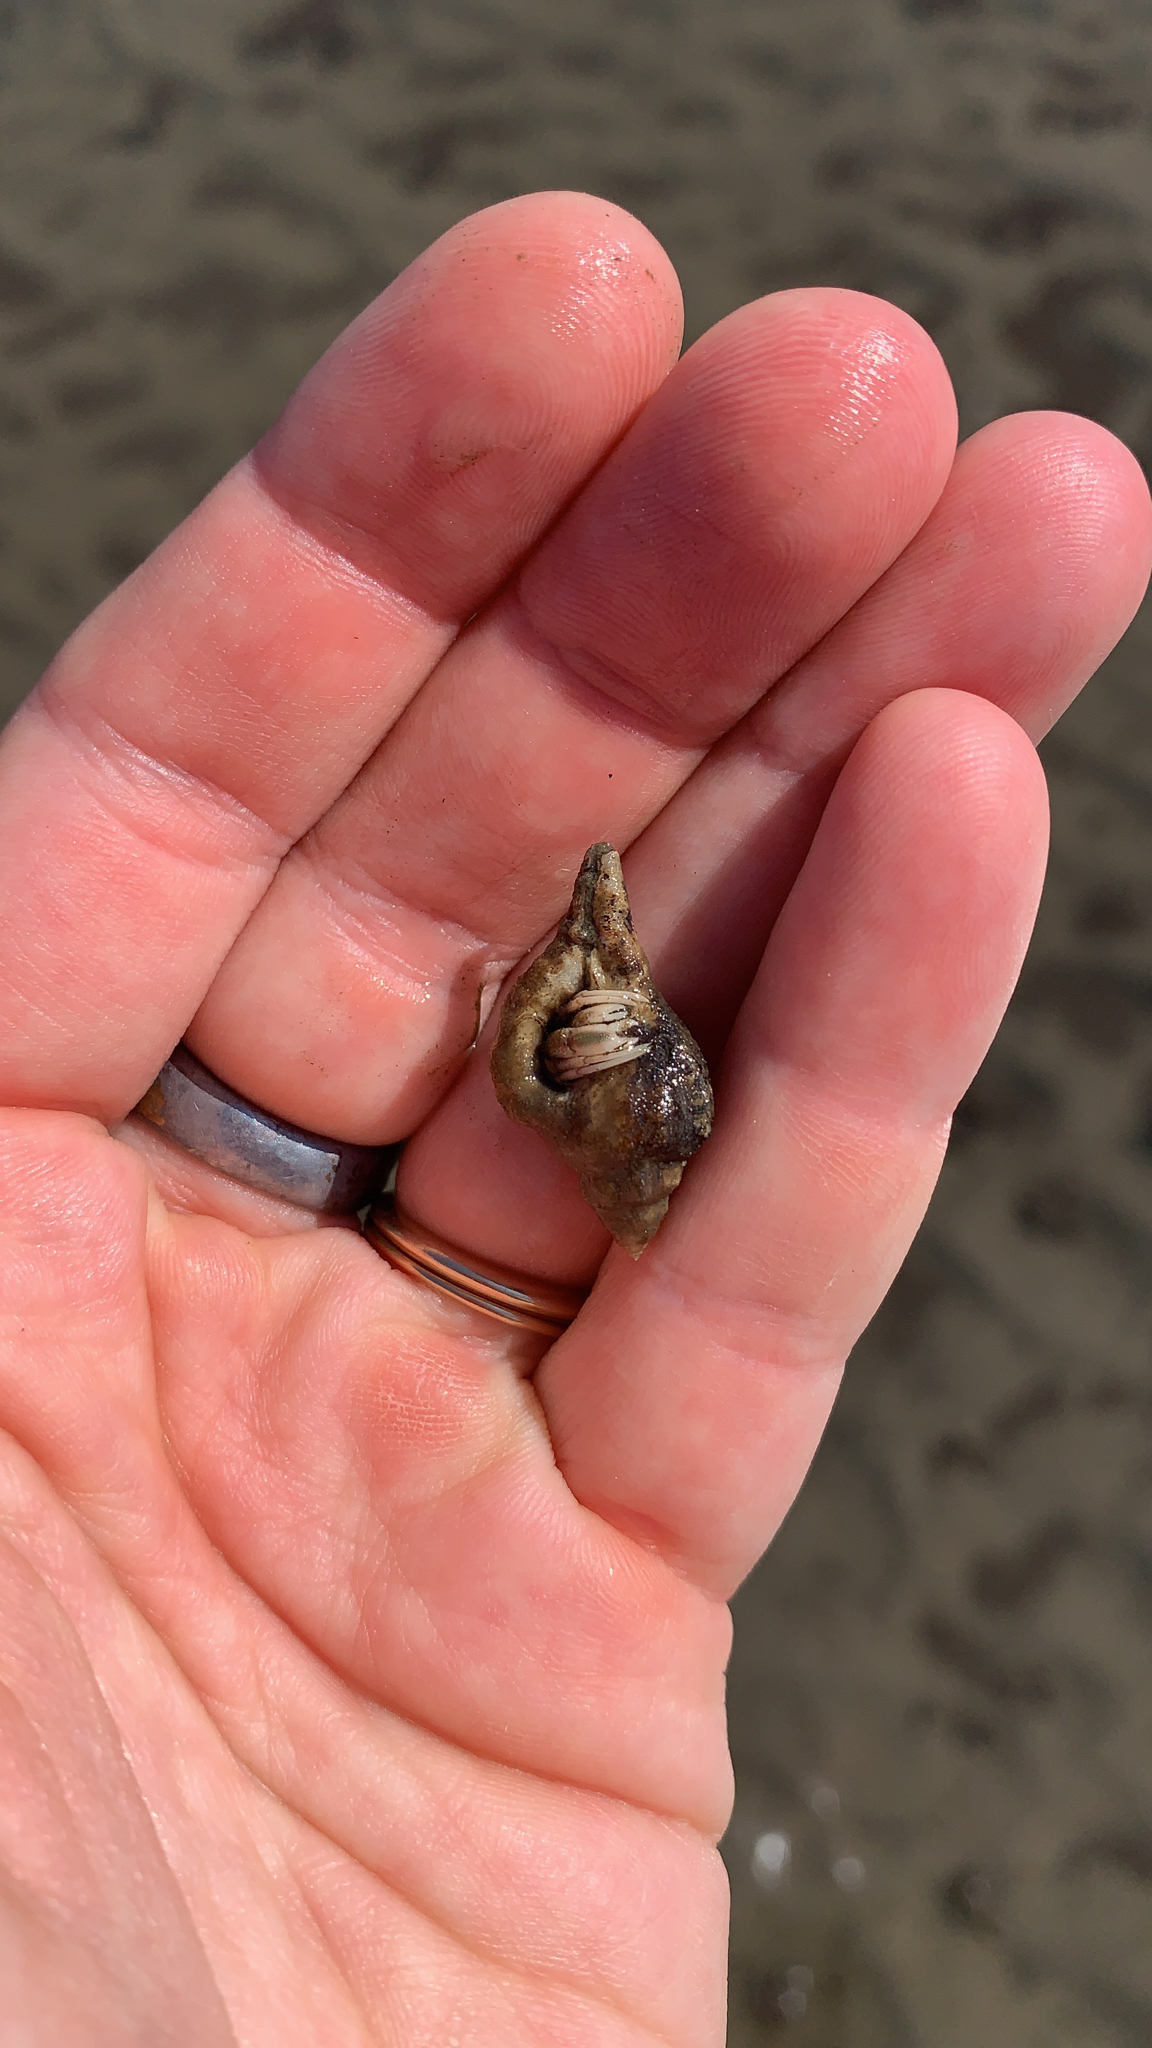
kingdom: Animalia
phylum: Mollusca
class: Gastropoda
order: Neogastropoda
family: Muricidae
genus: Eupleura
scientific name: Eupleura caudata
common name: Thick-lip drill
